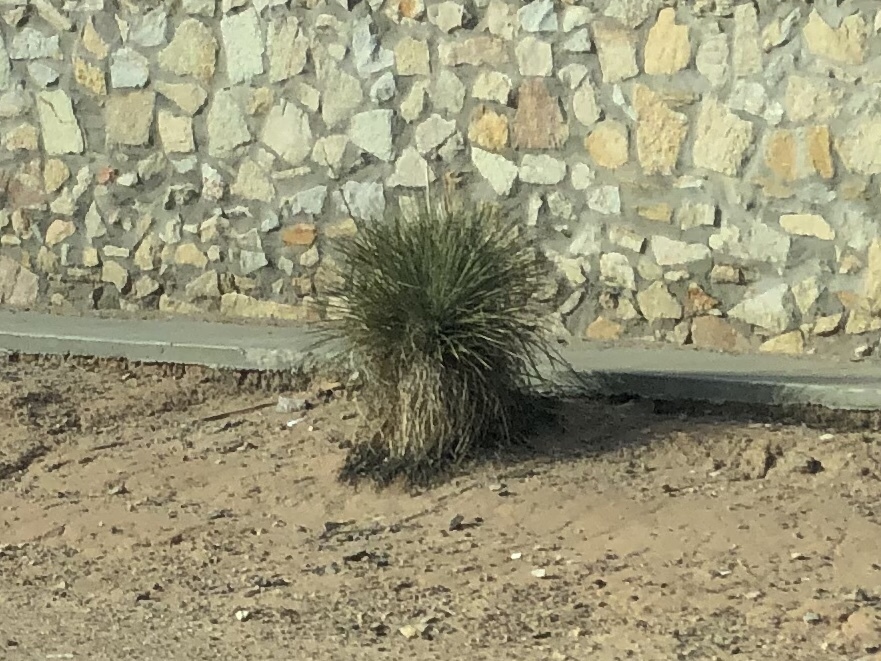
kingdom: Plantae
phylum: Tracheophyta
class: Liliopsida
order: Asparagales
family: Asparagaceae
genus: Yucca
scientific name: Yucca elata
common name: Palmella
